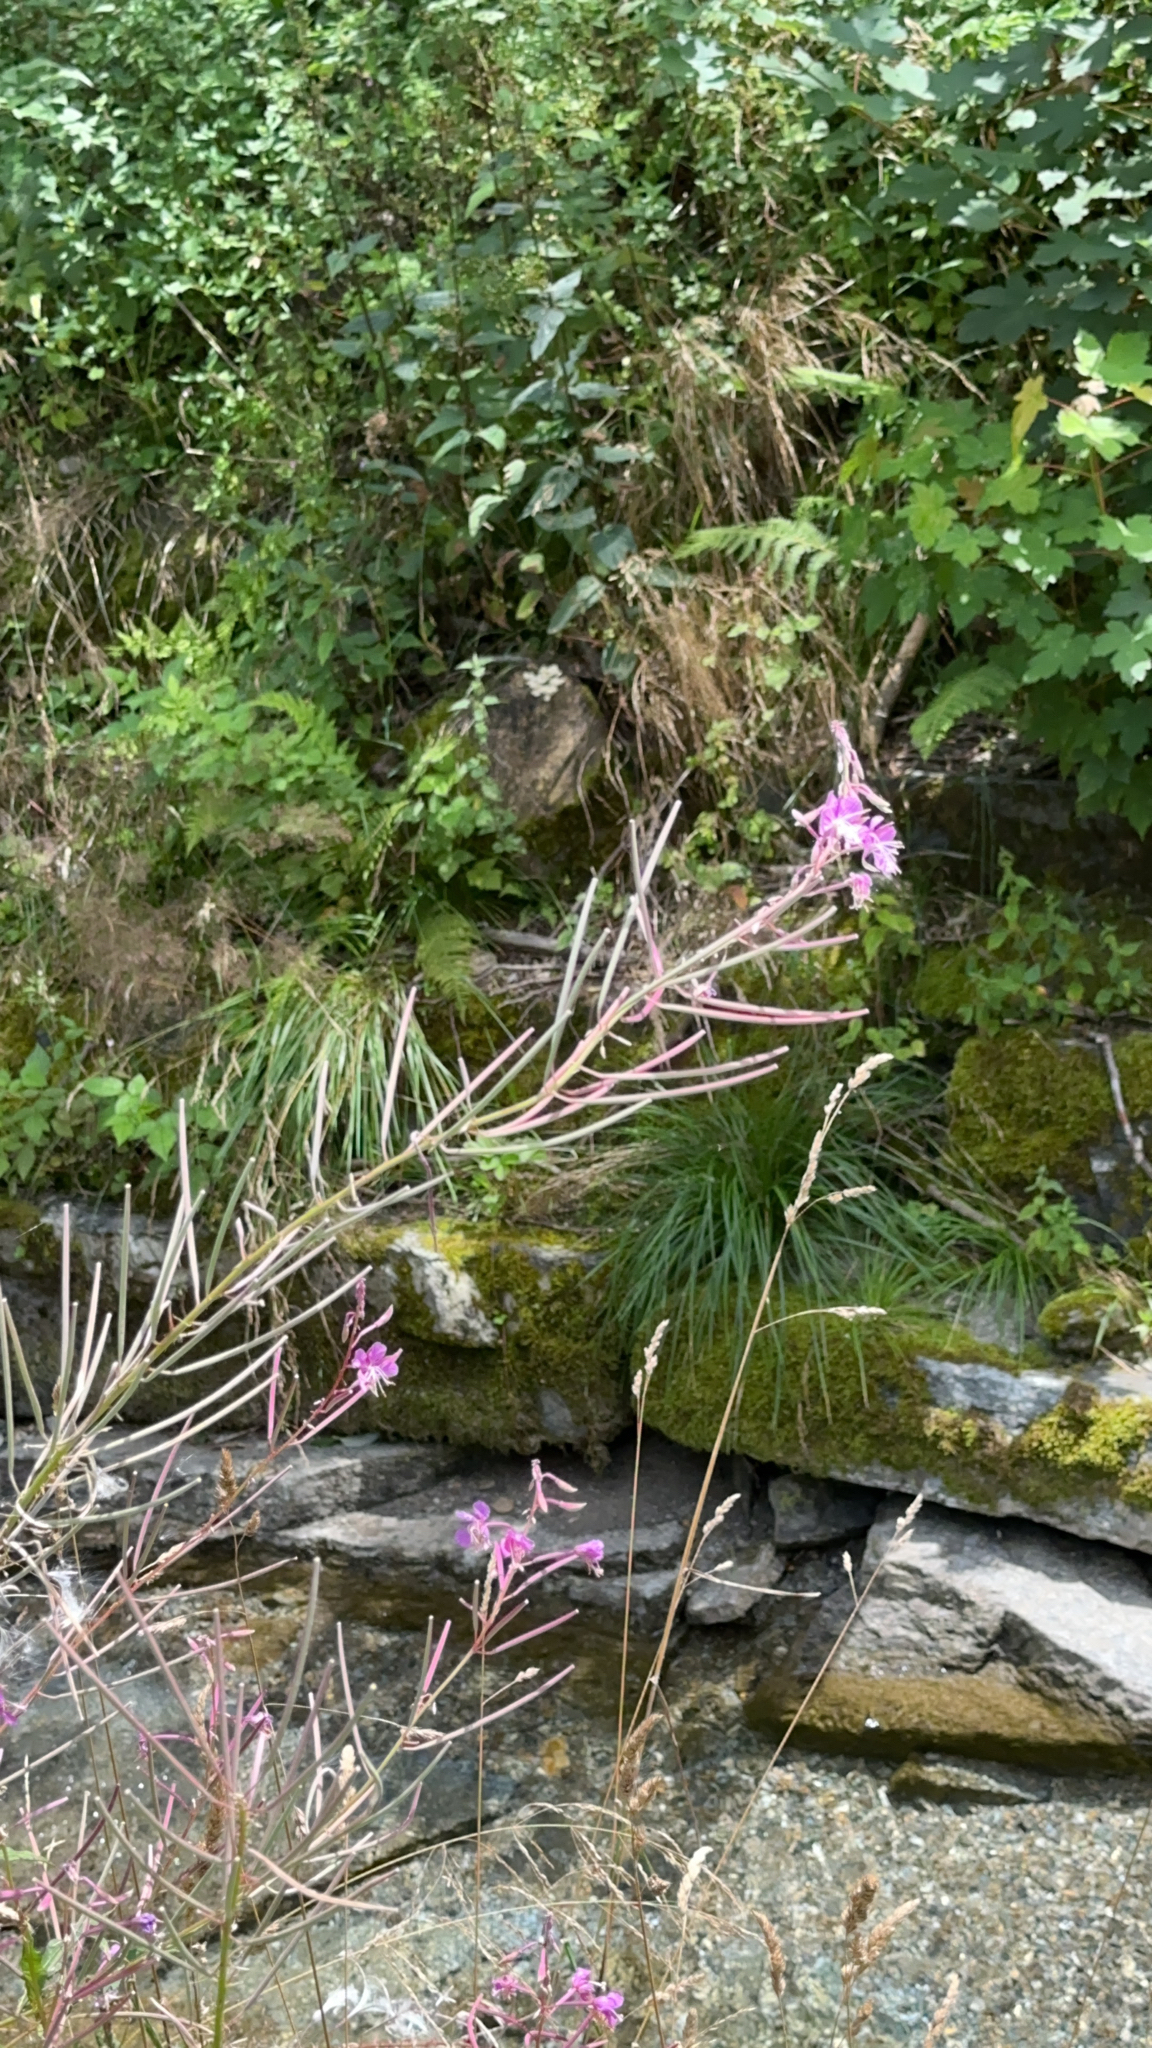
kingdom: Plantae
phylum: Tracheophyta
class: Magnoliopsida
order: Myrtales
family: Onagraceae
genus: Chamaenerion
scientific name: Chamaenerion angustifolium
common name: Fireweed
